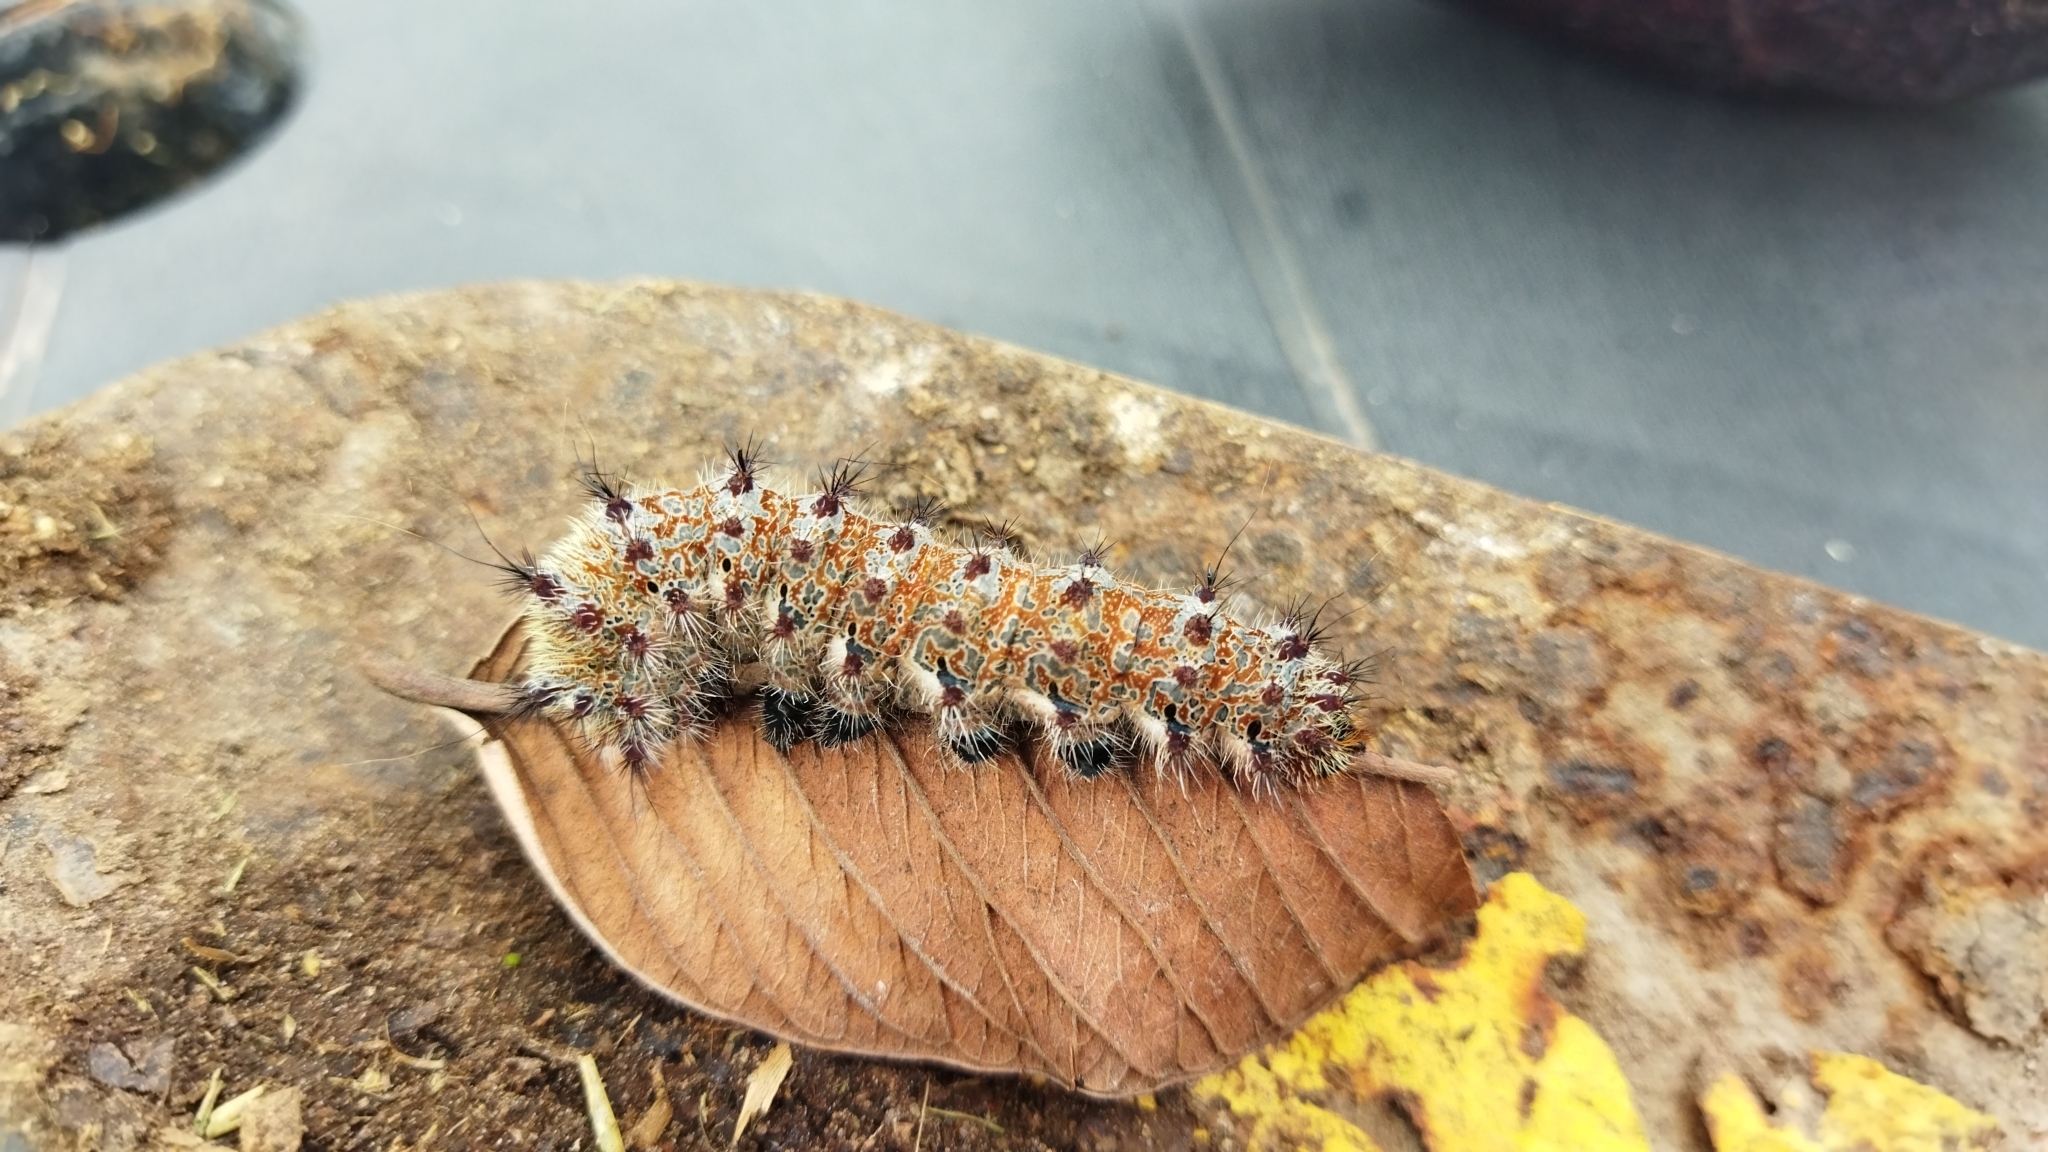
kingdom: Animalia
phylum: Arthropoda
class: Insecta
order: Lepidoptera
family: Saturniidae
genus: Holocerina
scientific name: Holocerina smilax
